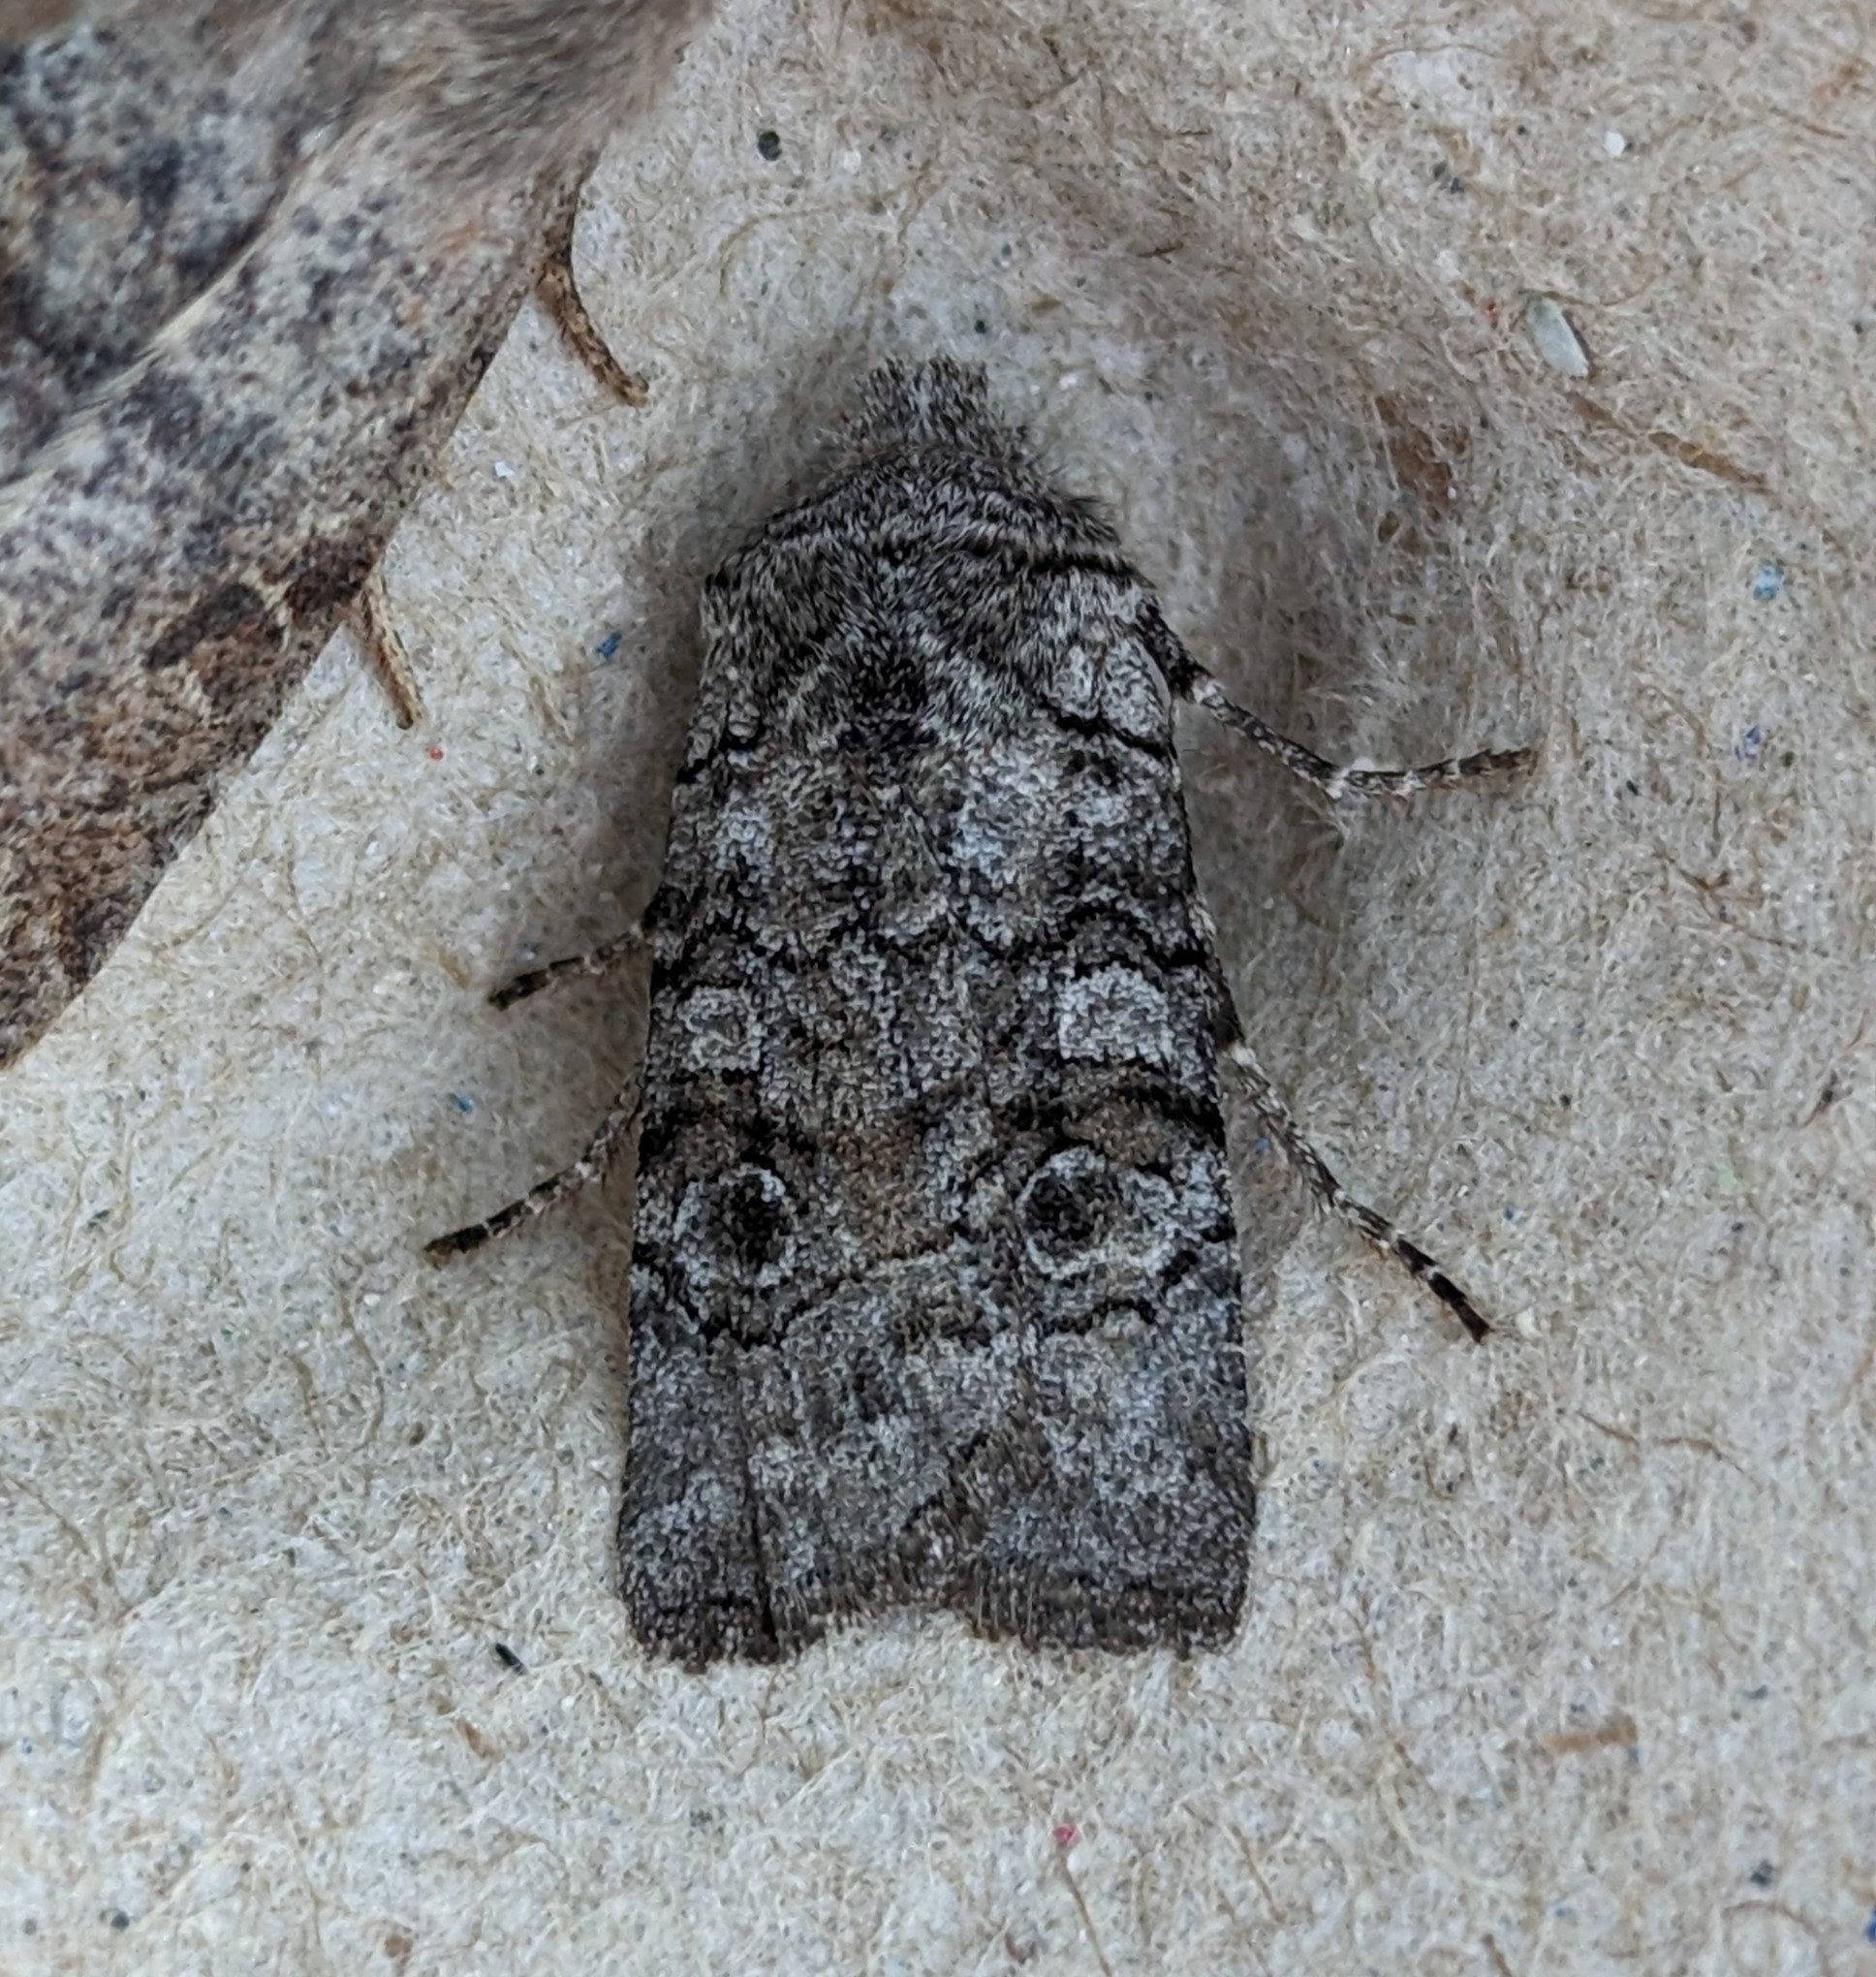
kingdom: Animalia
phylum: Arthropoda
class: Insecta
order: Lepidoptera
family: Noctuidae
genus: Litholomia
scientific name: Litholomia napaea
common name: False pinion moth
